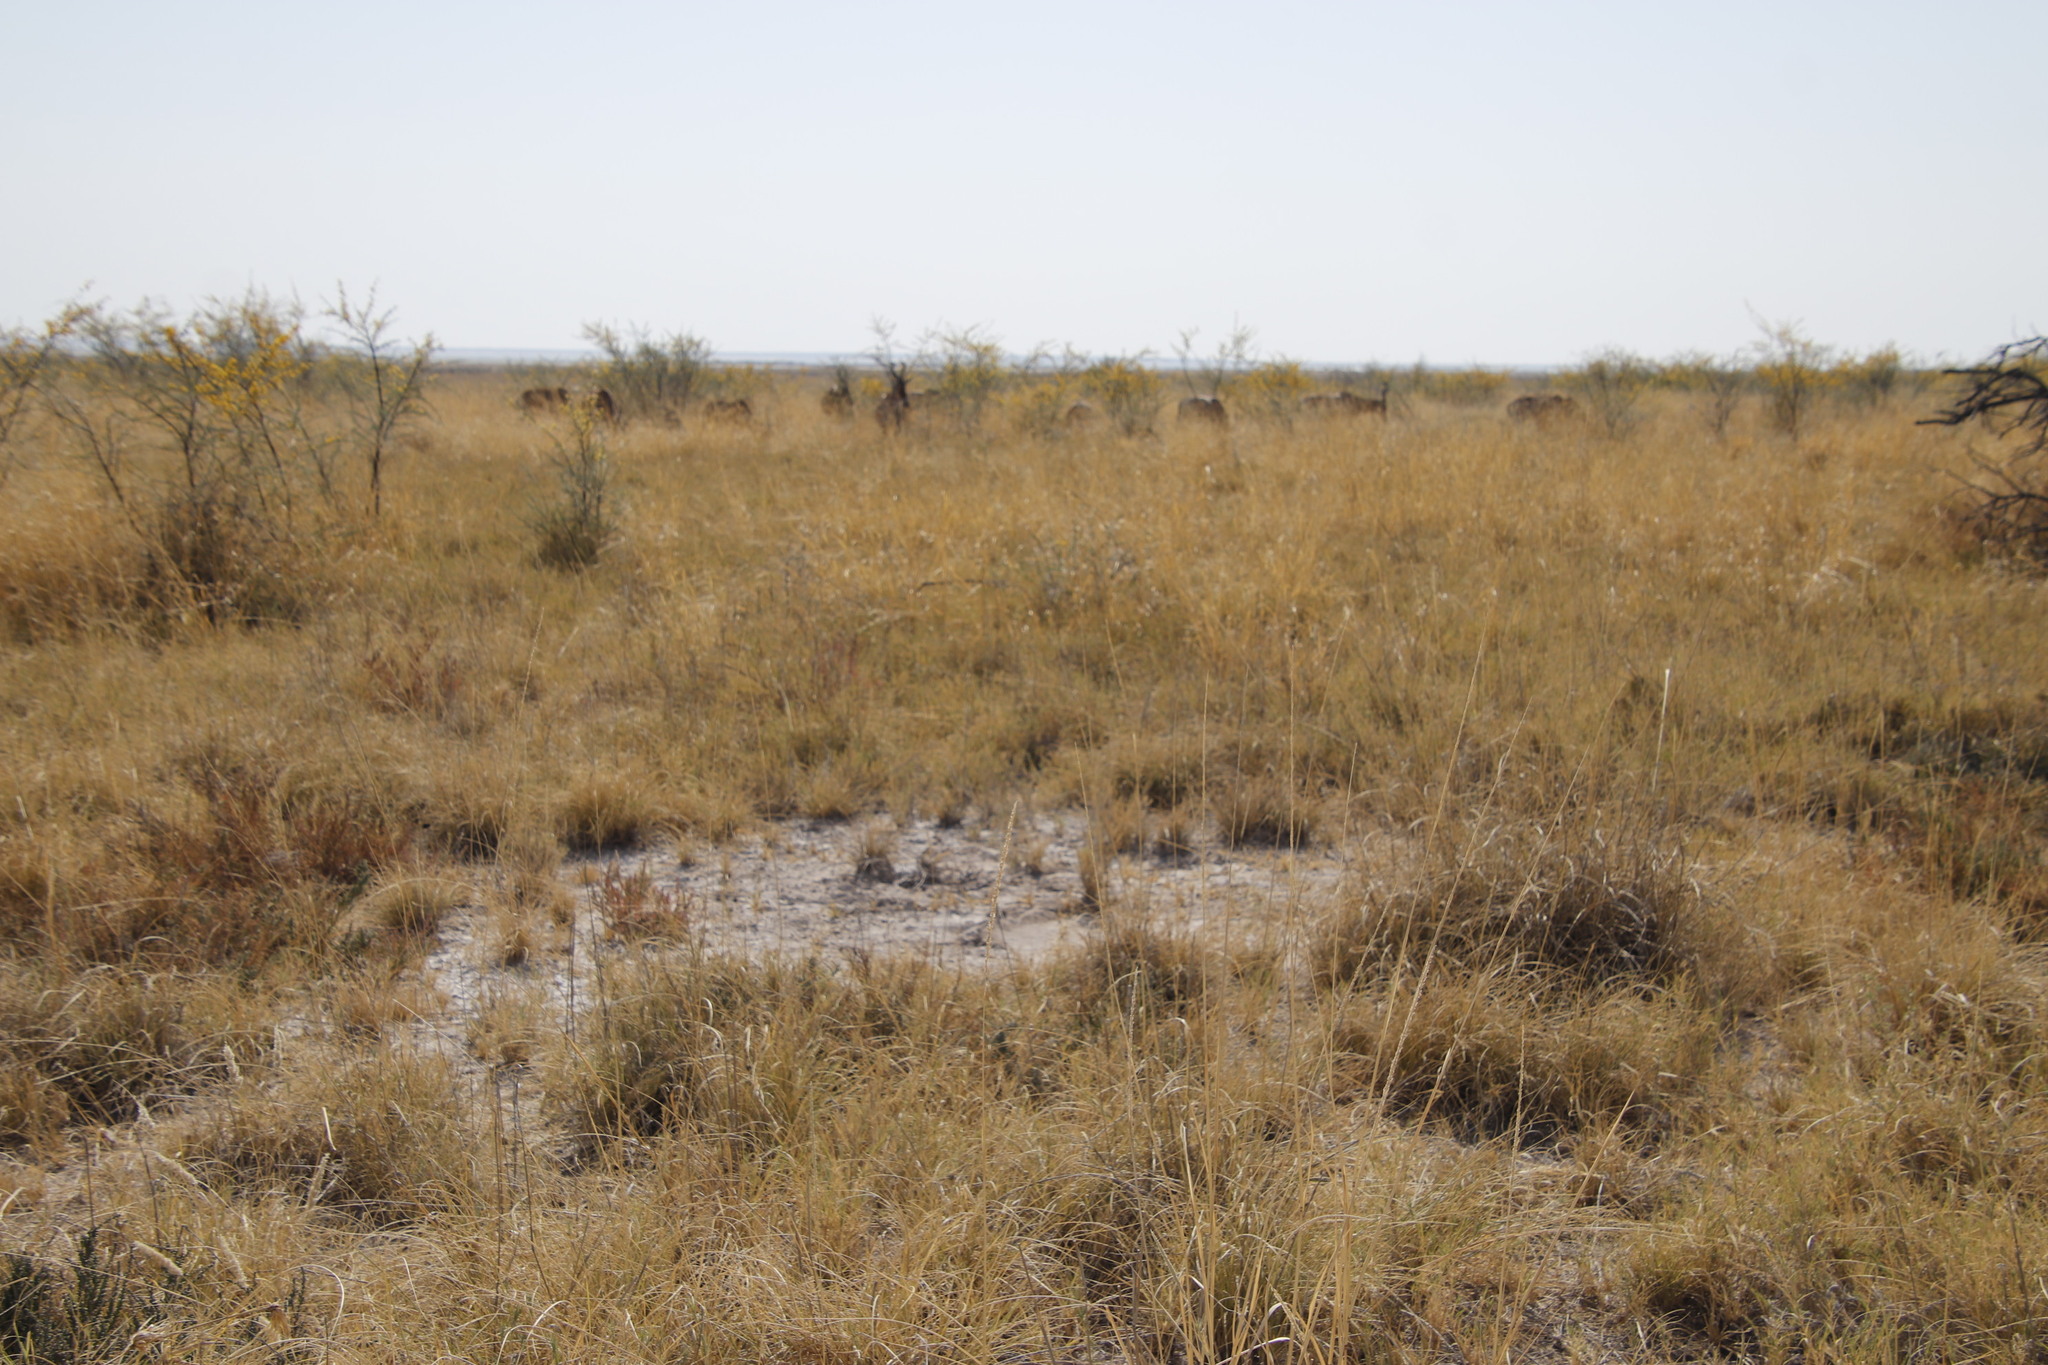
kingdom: Animalia
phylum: Chordata
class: Mammalia
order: Artiodactyla
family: Bovidae
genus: Alcelaphus
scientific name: Alcelaphus caama
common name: Red hartebeest
